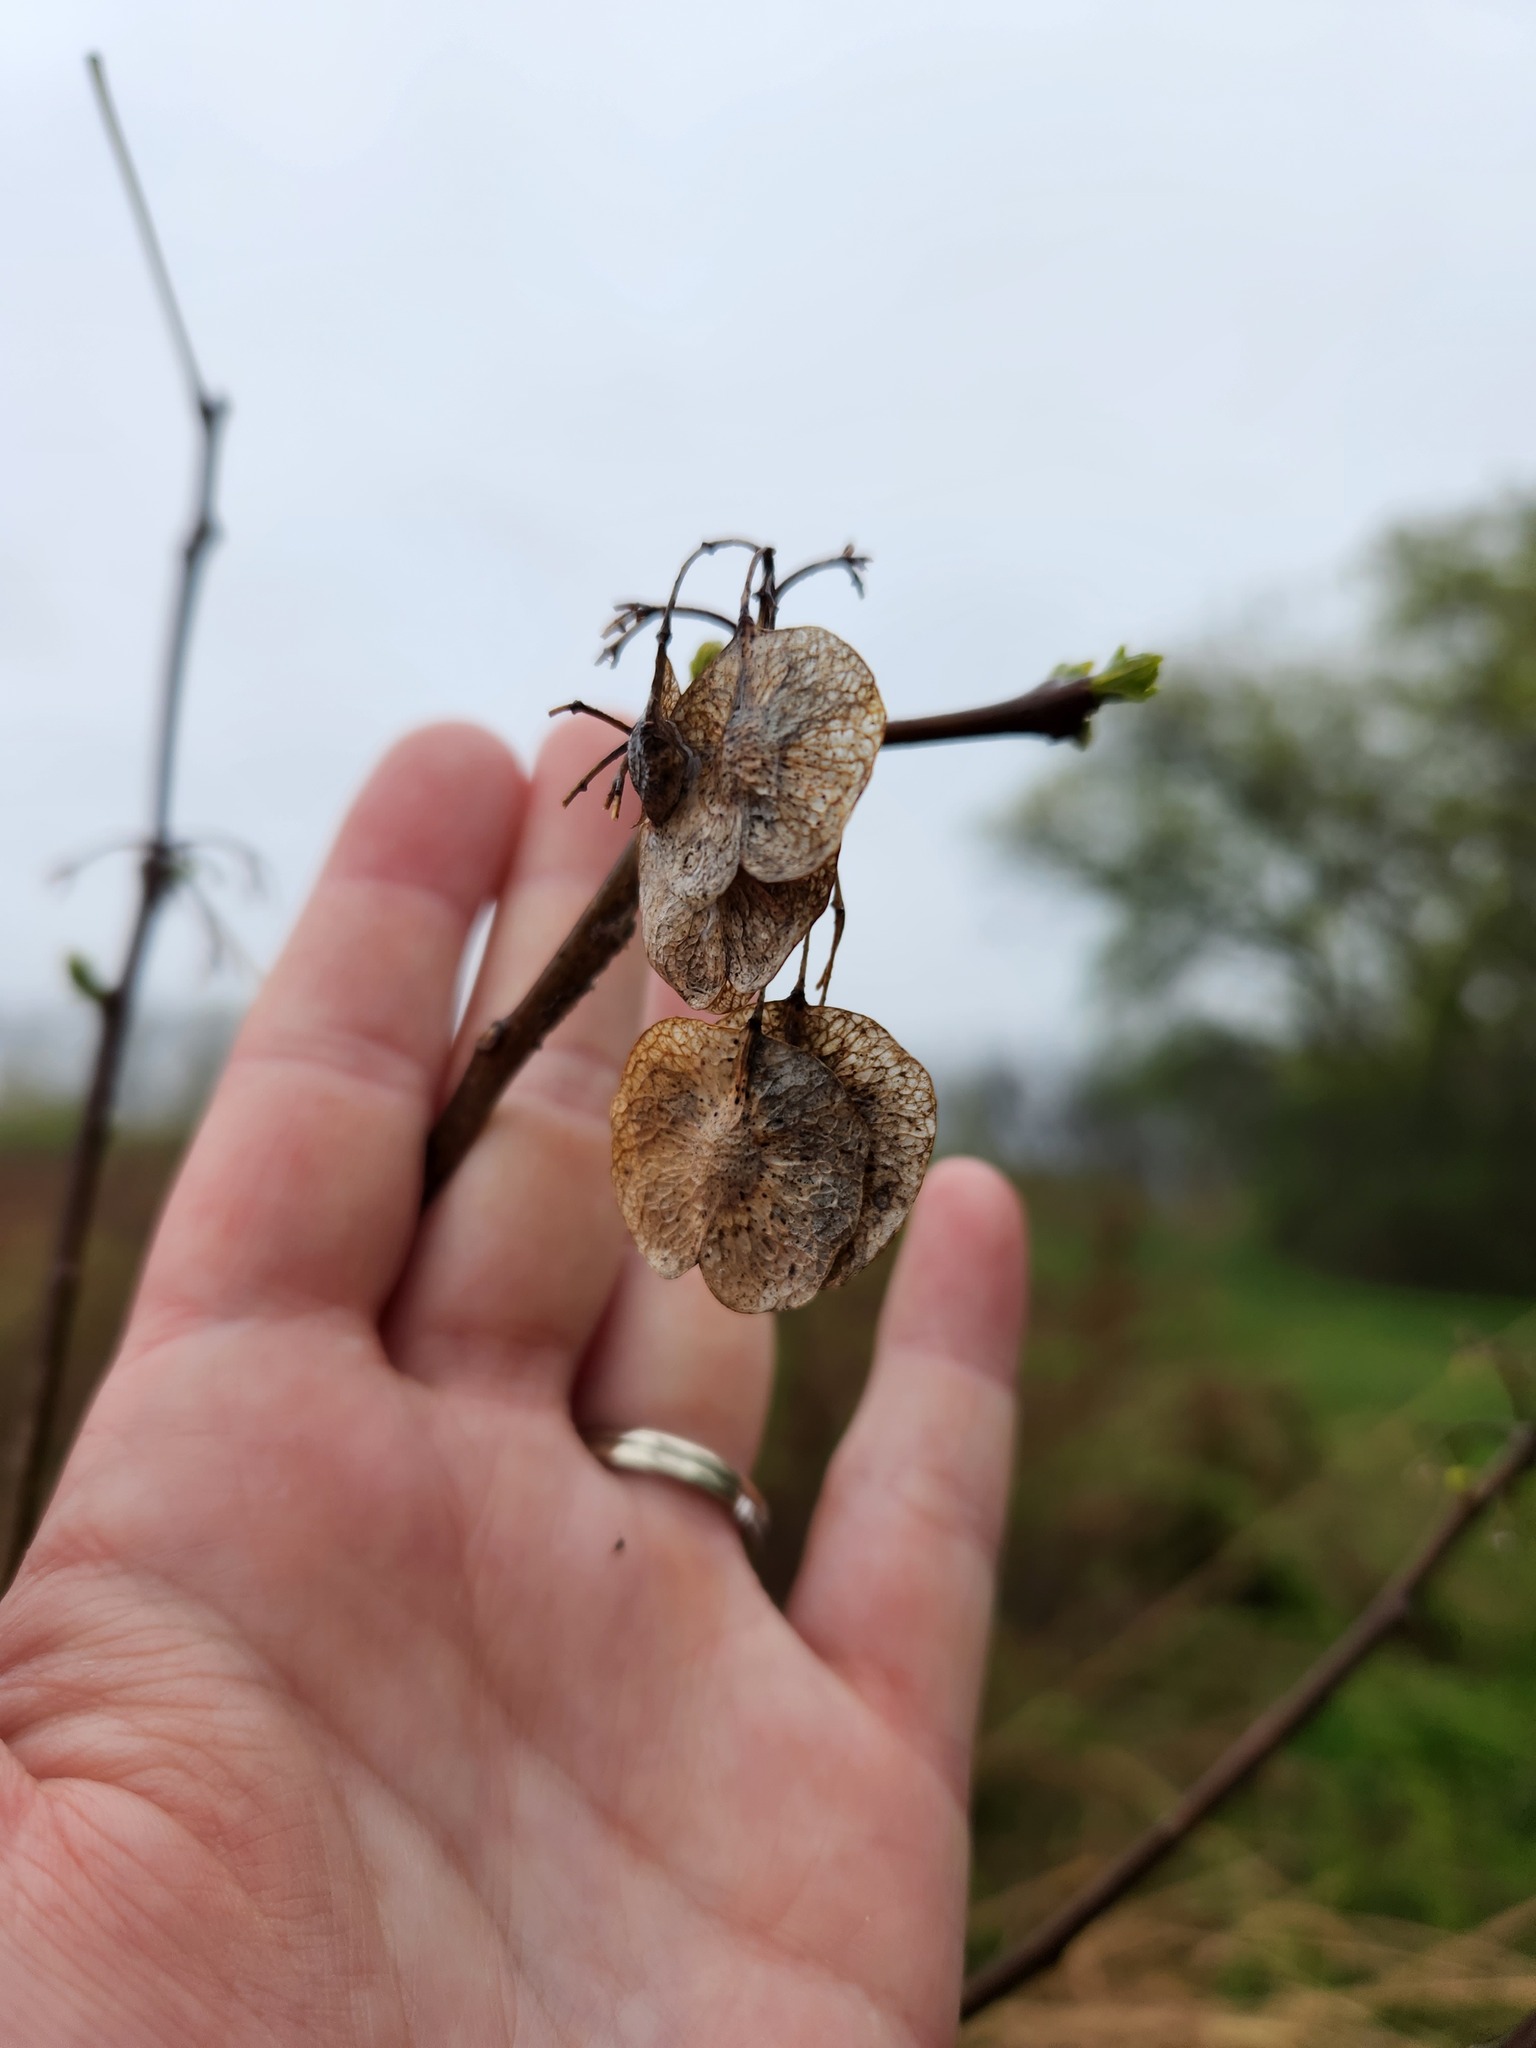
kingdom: Plantae
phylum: Tracheophyta
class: Magnoliopsida
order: Sapindales
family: Rutaceae
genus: Ptelea
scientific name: Ptelea trifoliata
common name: Common hop-tree
